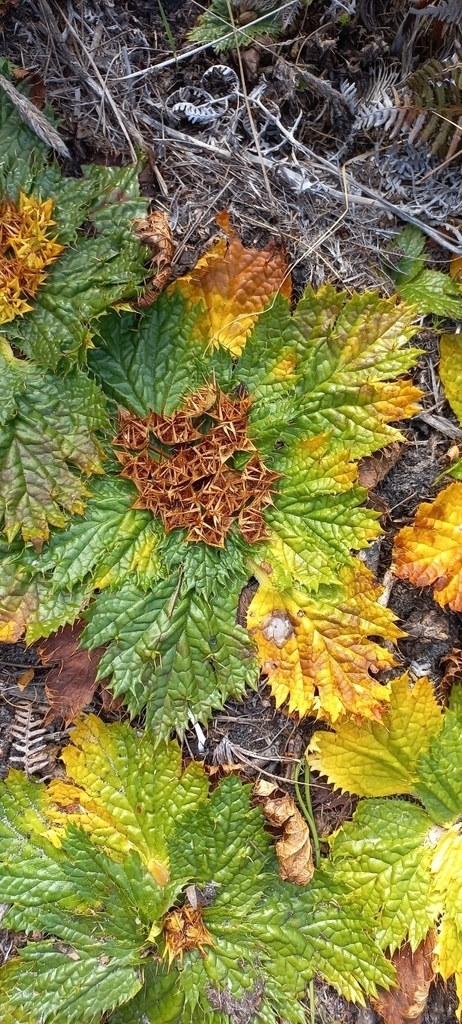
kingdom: Plantae
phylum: Tracheophyta
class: Magnoliopsida
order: Apiales
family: Apiaceae
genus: Arctopus
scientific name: Arctopus echinatus
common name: Platdoring
